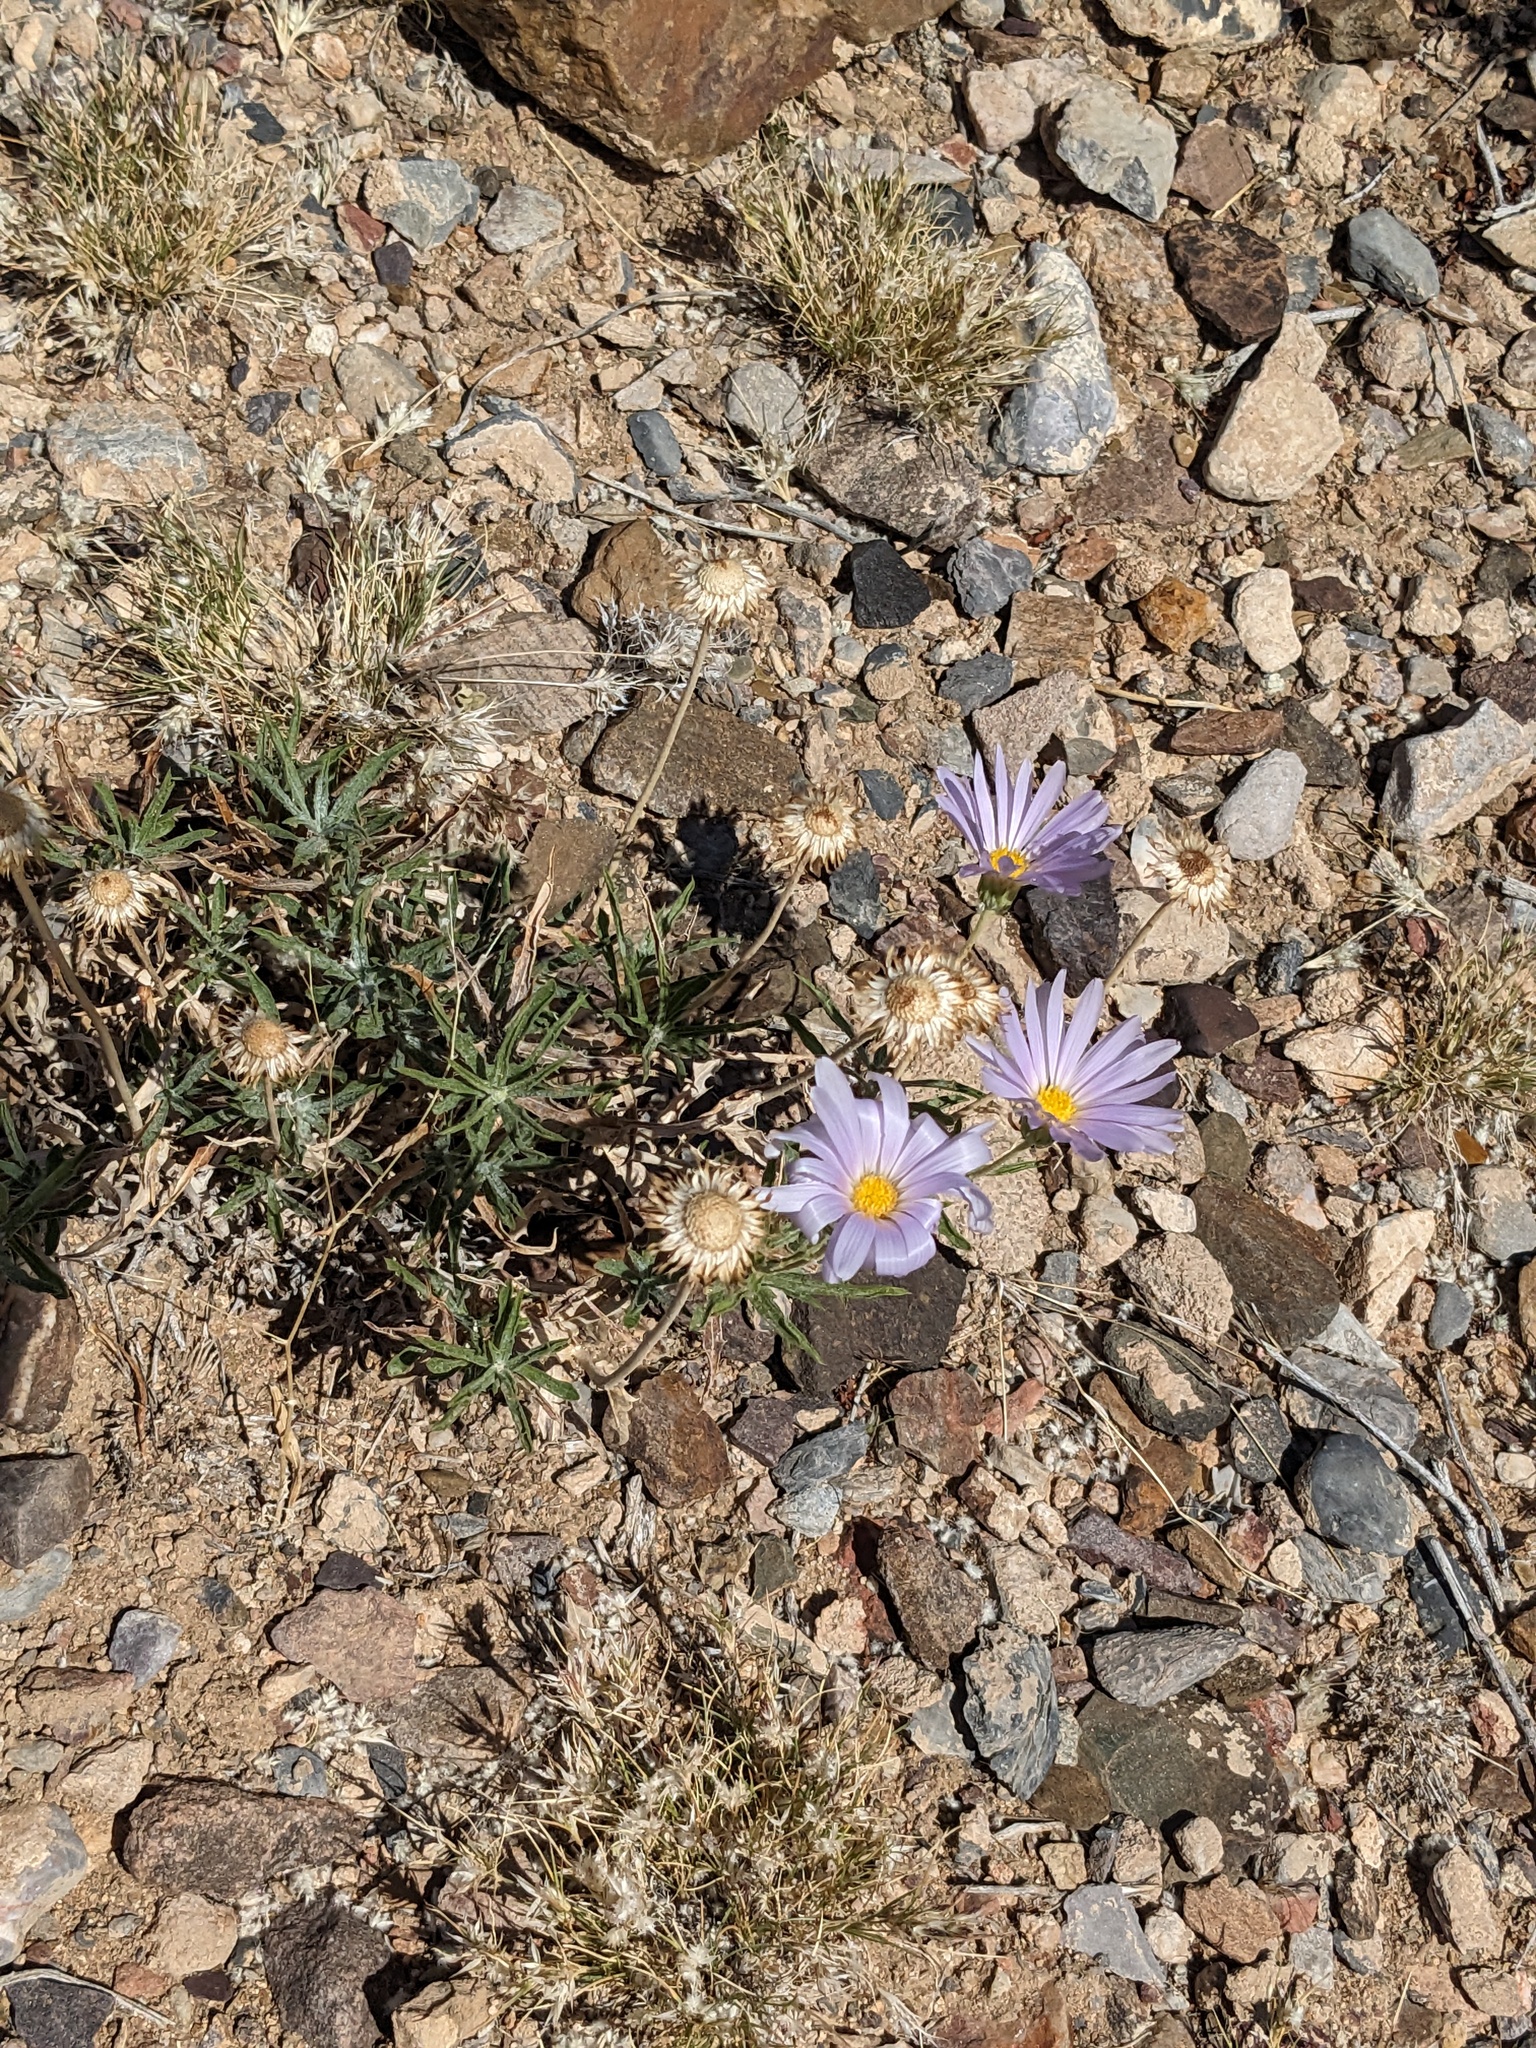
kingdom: Plantae
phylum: Tracheophyta
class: Magnoliopsida
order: Asterales
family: Asteraceae
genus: Xylorhiza
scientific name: Xylorhiza tortifolia
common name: Hurt-leaf woody-aster
